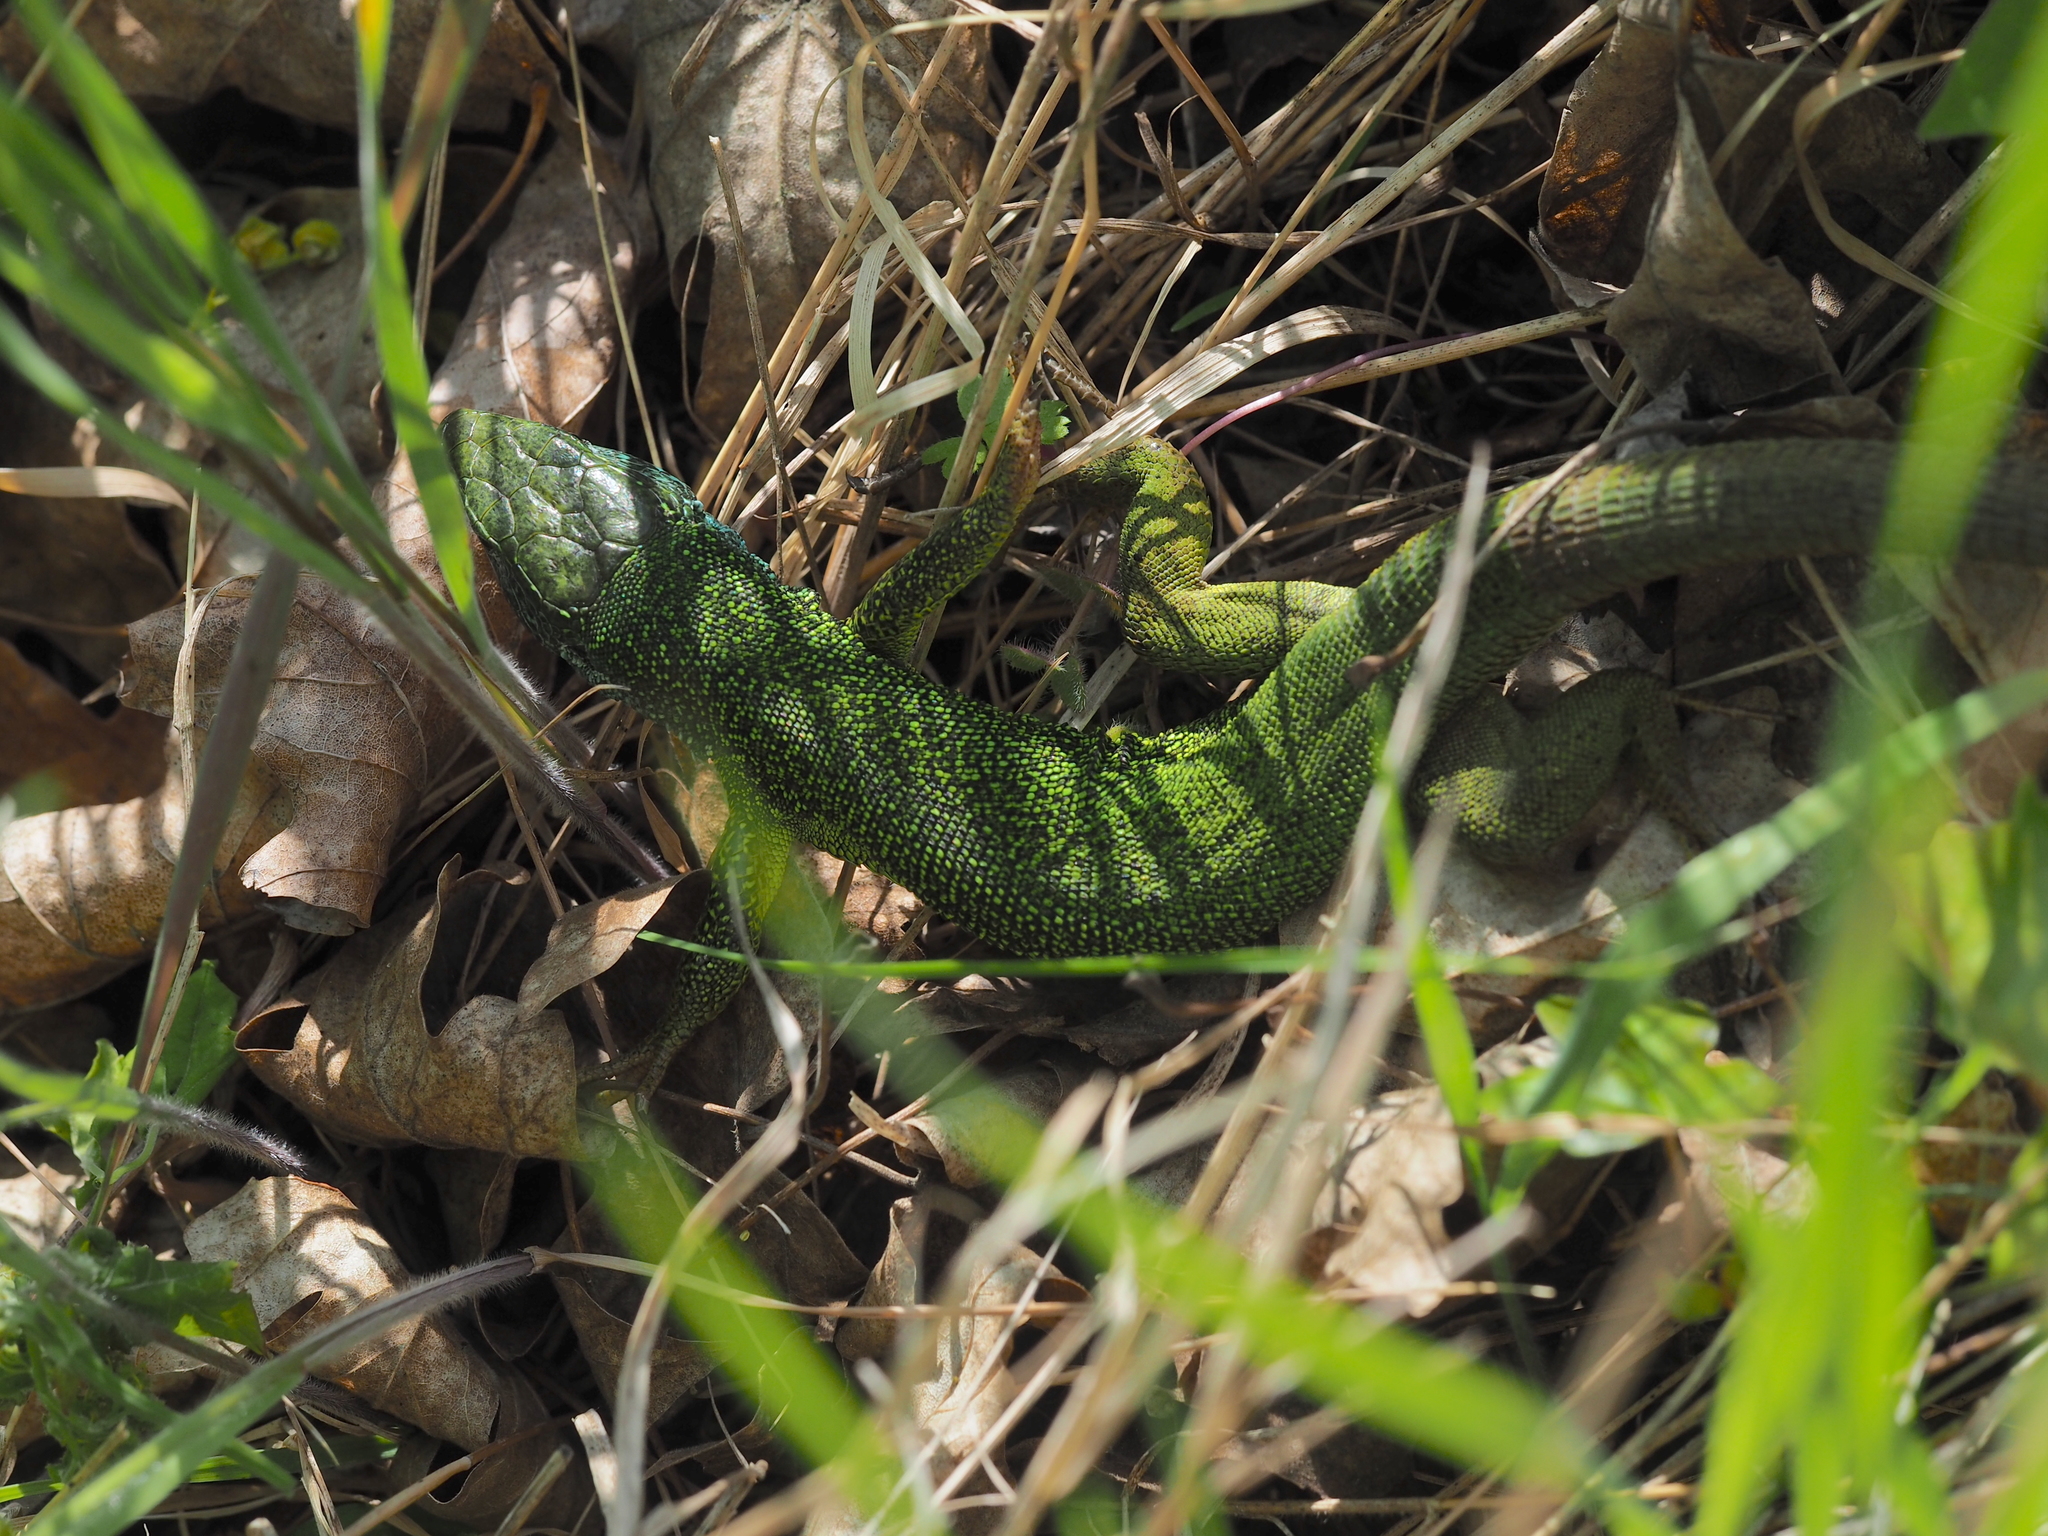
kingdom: Animalia
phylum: Chordata
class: Squamata
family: Lacertidae
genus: Lacerta
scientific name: Lacerta viridis
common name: European green lizard
